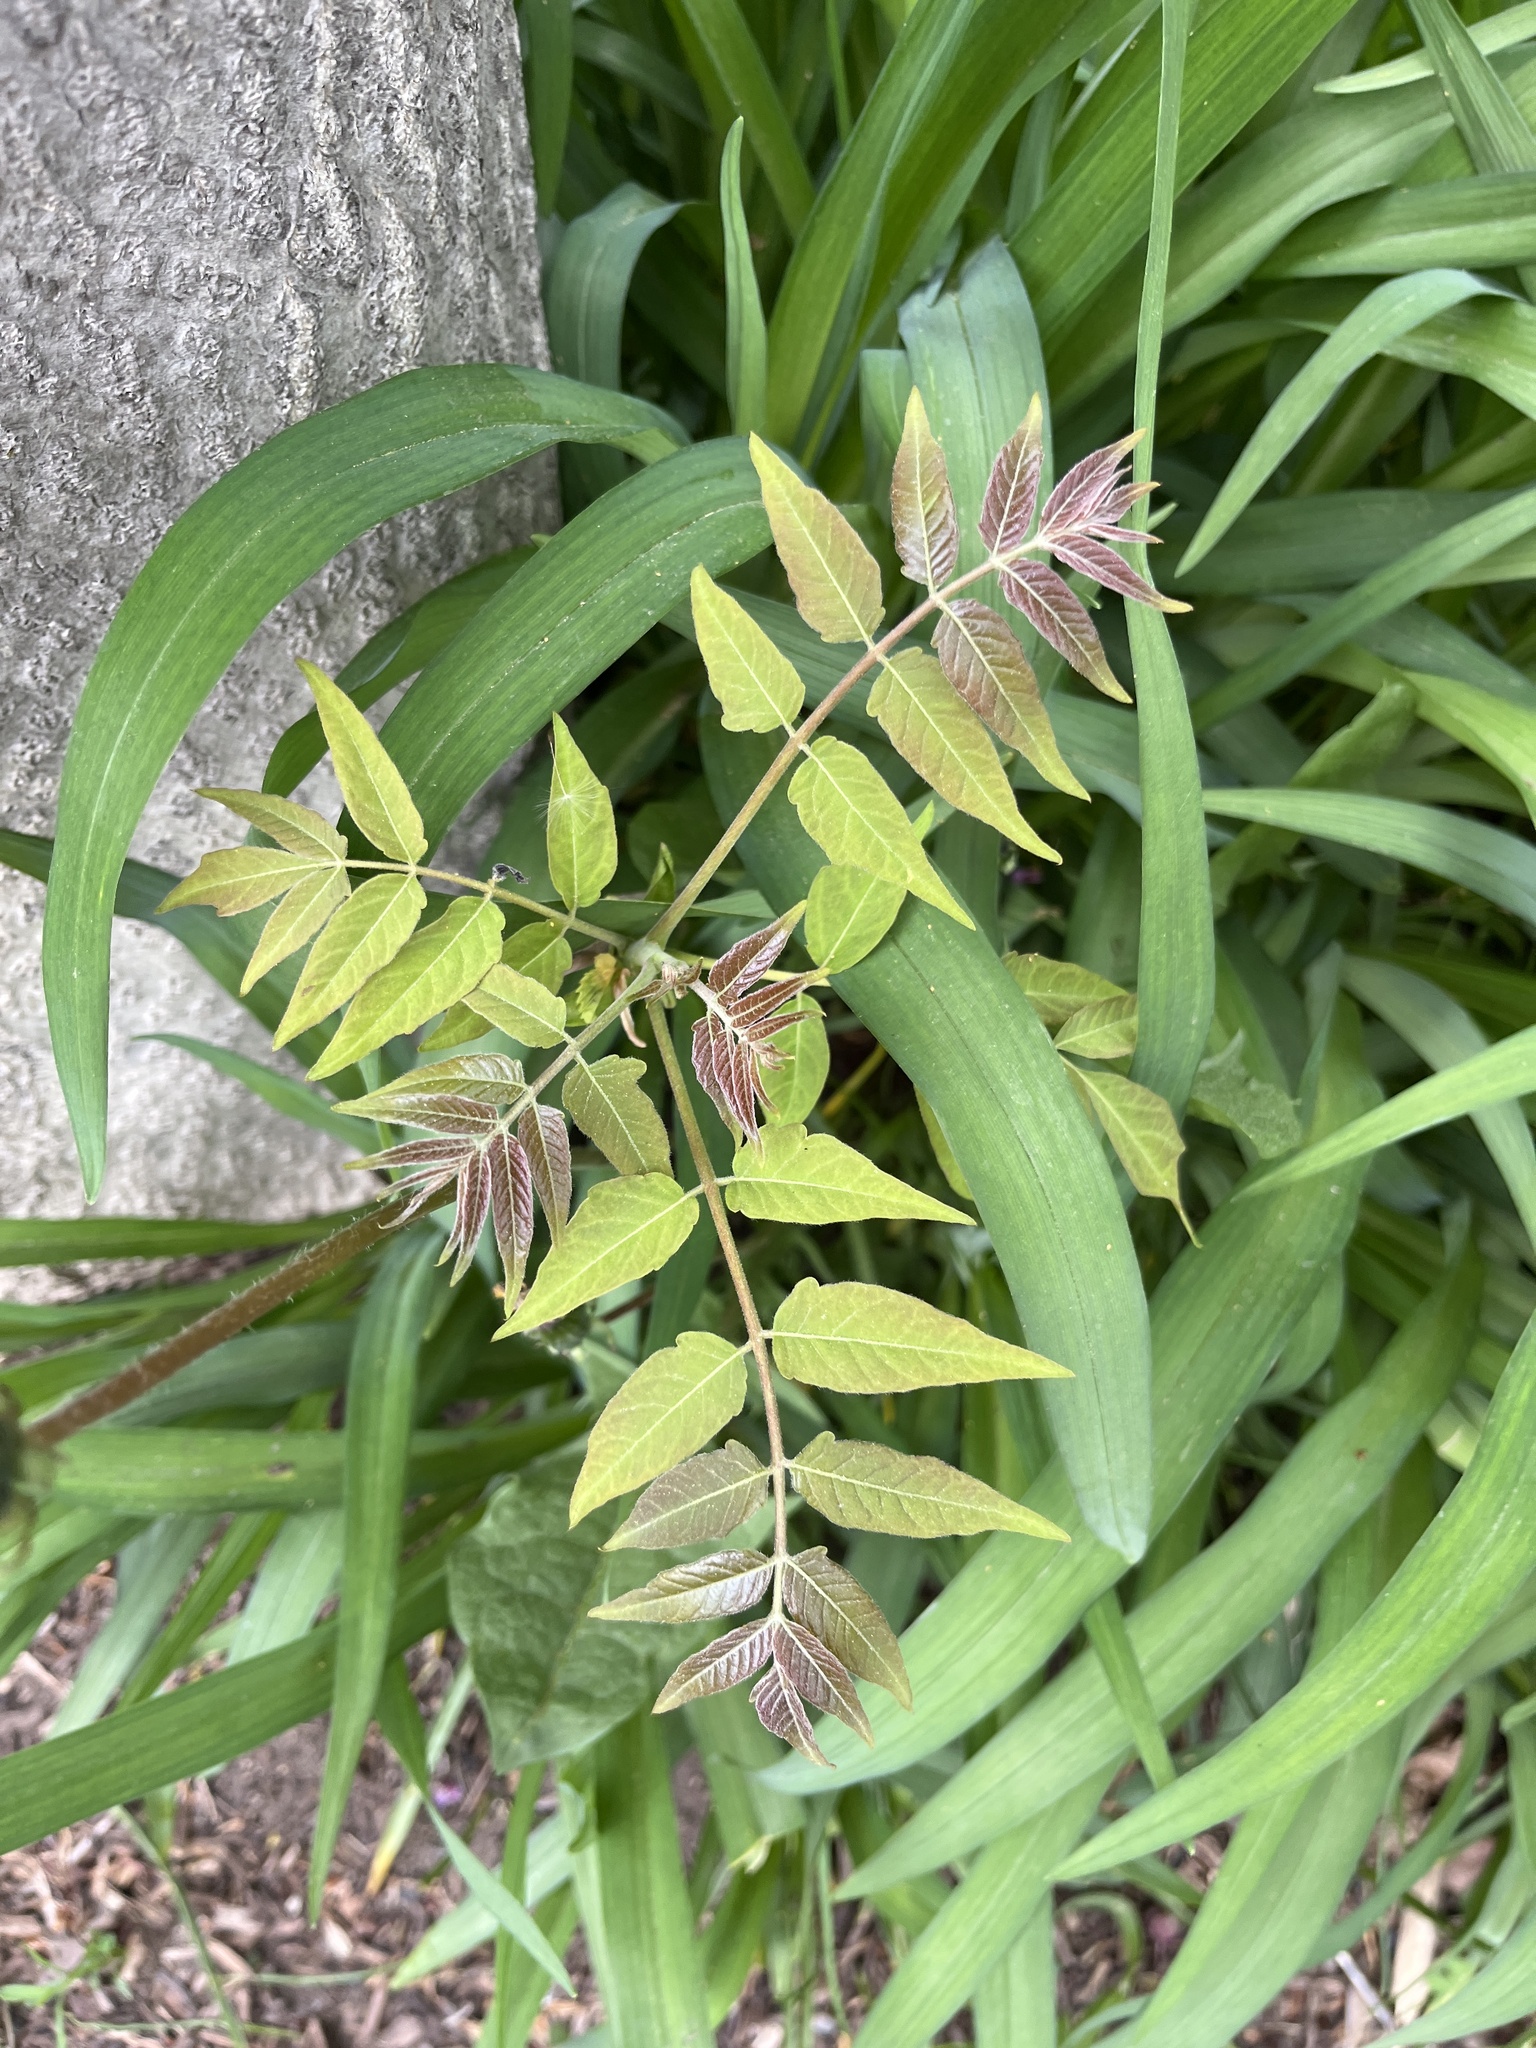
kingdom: Plantae
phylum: Tracheophyta
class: Magnoliopsida
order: Sapindales
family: Simaroubaceae
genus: Ailanthus
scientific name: Ailanthus altissima
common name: Tree-of-heaven
